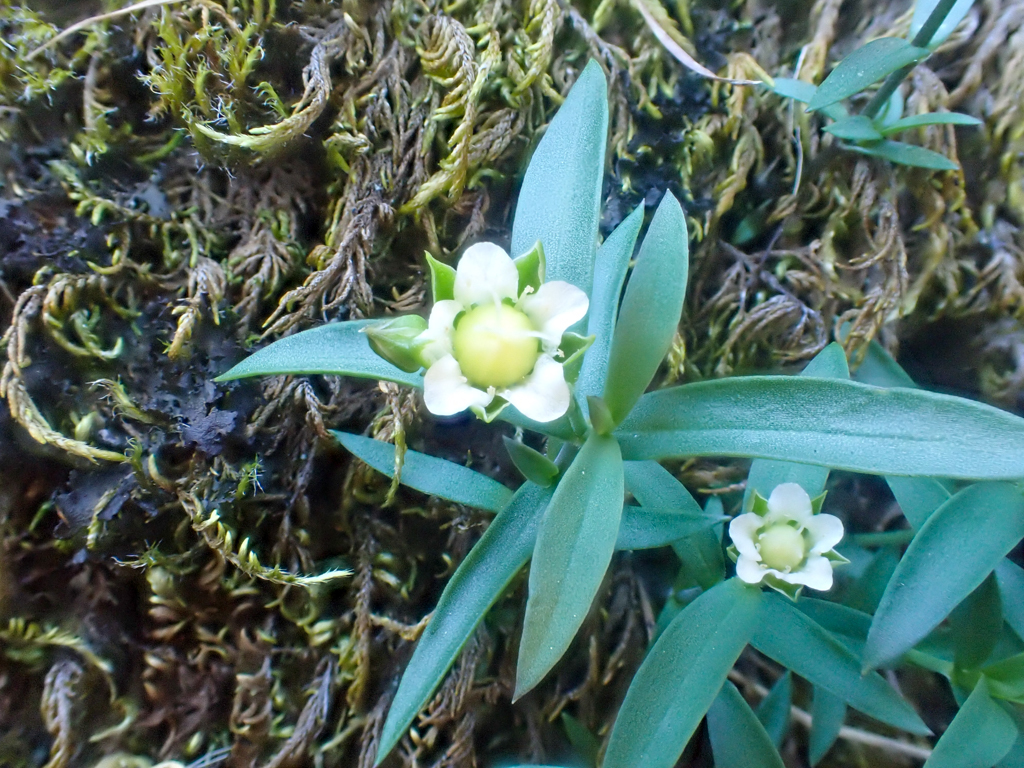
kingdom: Plantae
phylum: Tracheophyta
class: Magnoliopsida
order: Caryophyllales
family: Caryophyllaceae
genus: Moehringia
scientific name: Moehringia macrophylla
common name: Big-leaf sandwort
